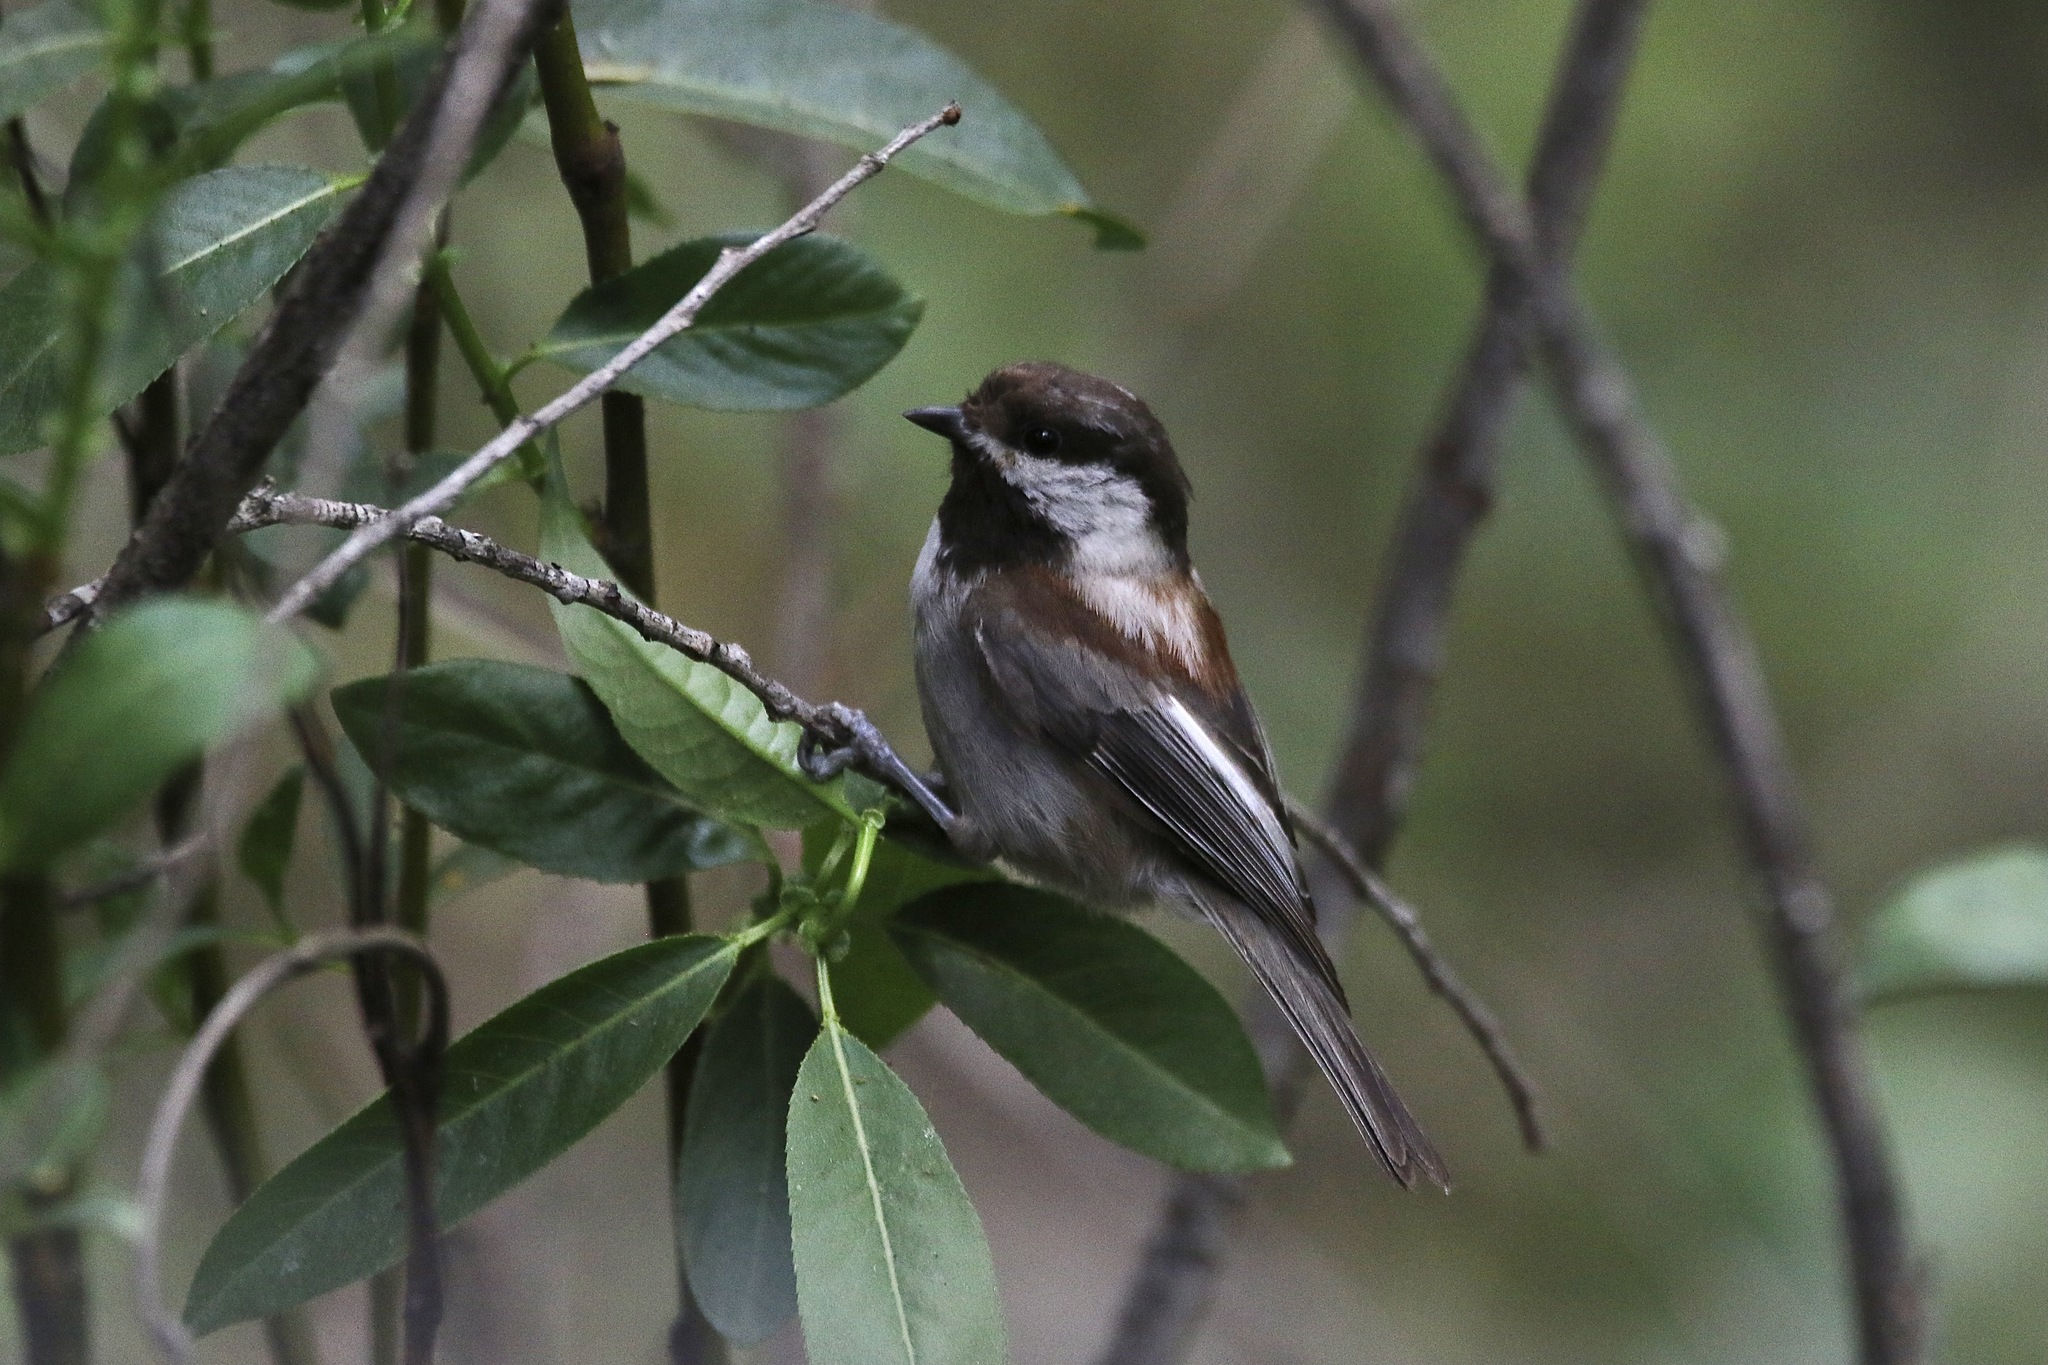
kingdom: Animalia
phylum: Chordata
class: Aves
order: Passeriformes
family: Paridae
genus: Poecile
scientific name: Poecile rufescens
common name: Chestnut-backed chickadee
